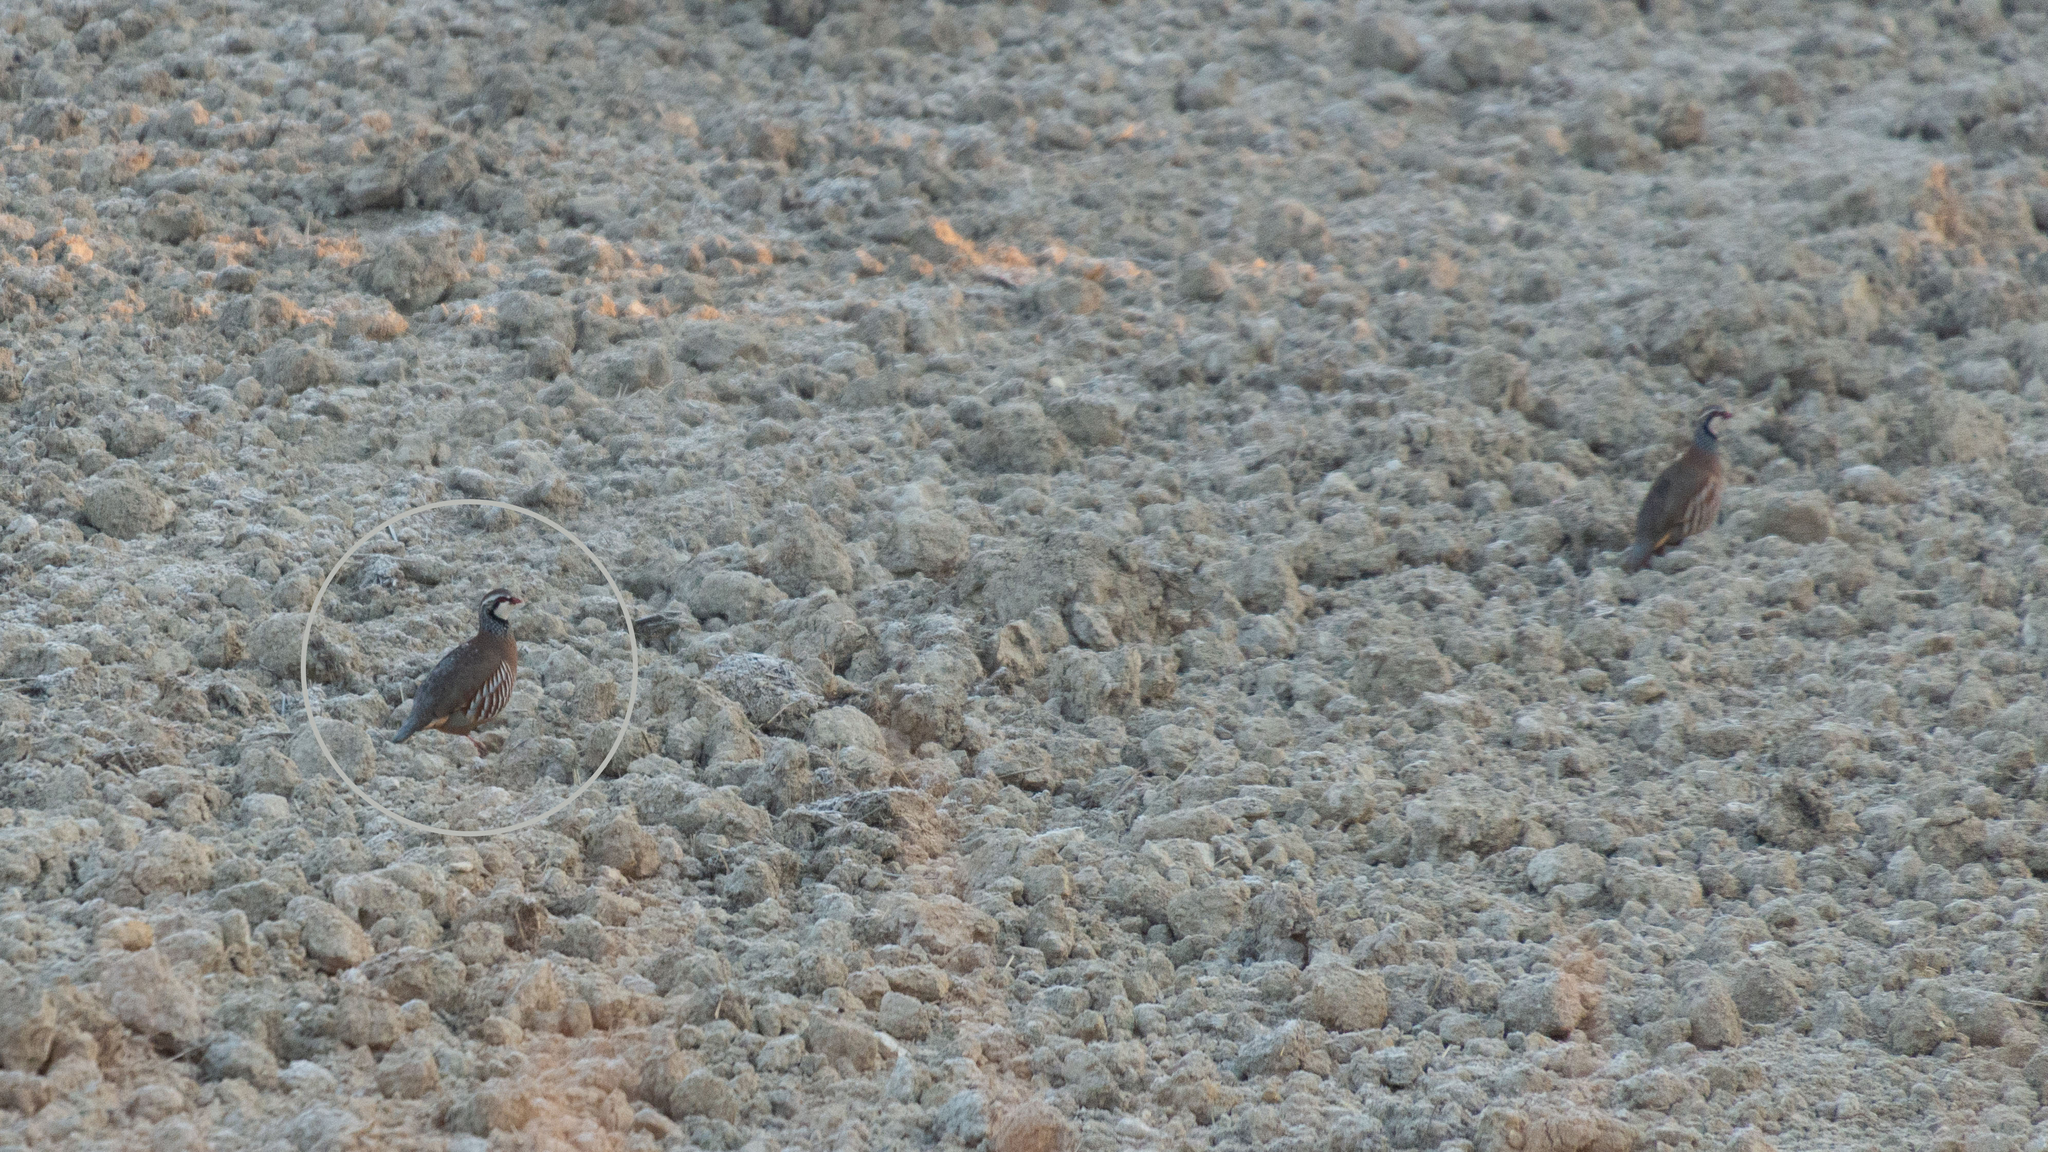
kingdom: Animalia
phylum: Chordata
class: Aves
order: Galliformes
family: Phasianidae
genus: Alectoris
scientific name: Alectoris rufa
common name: Red-legged partridge
